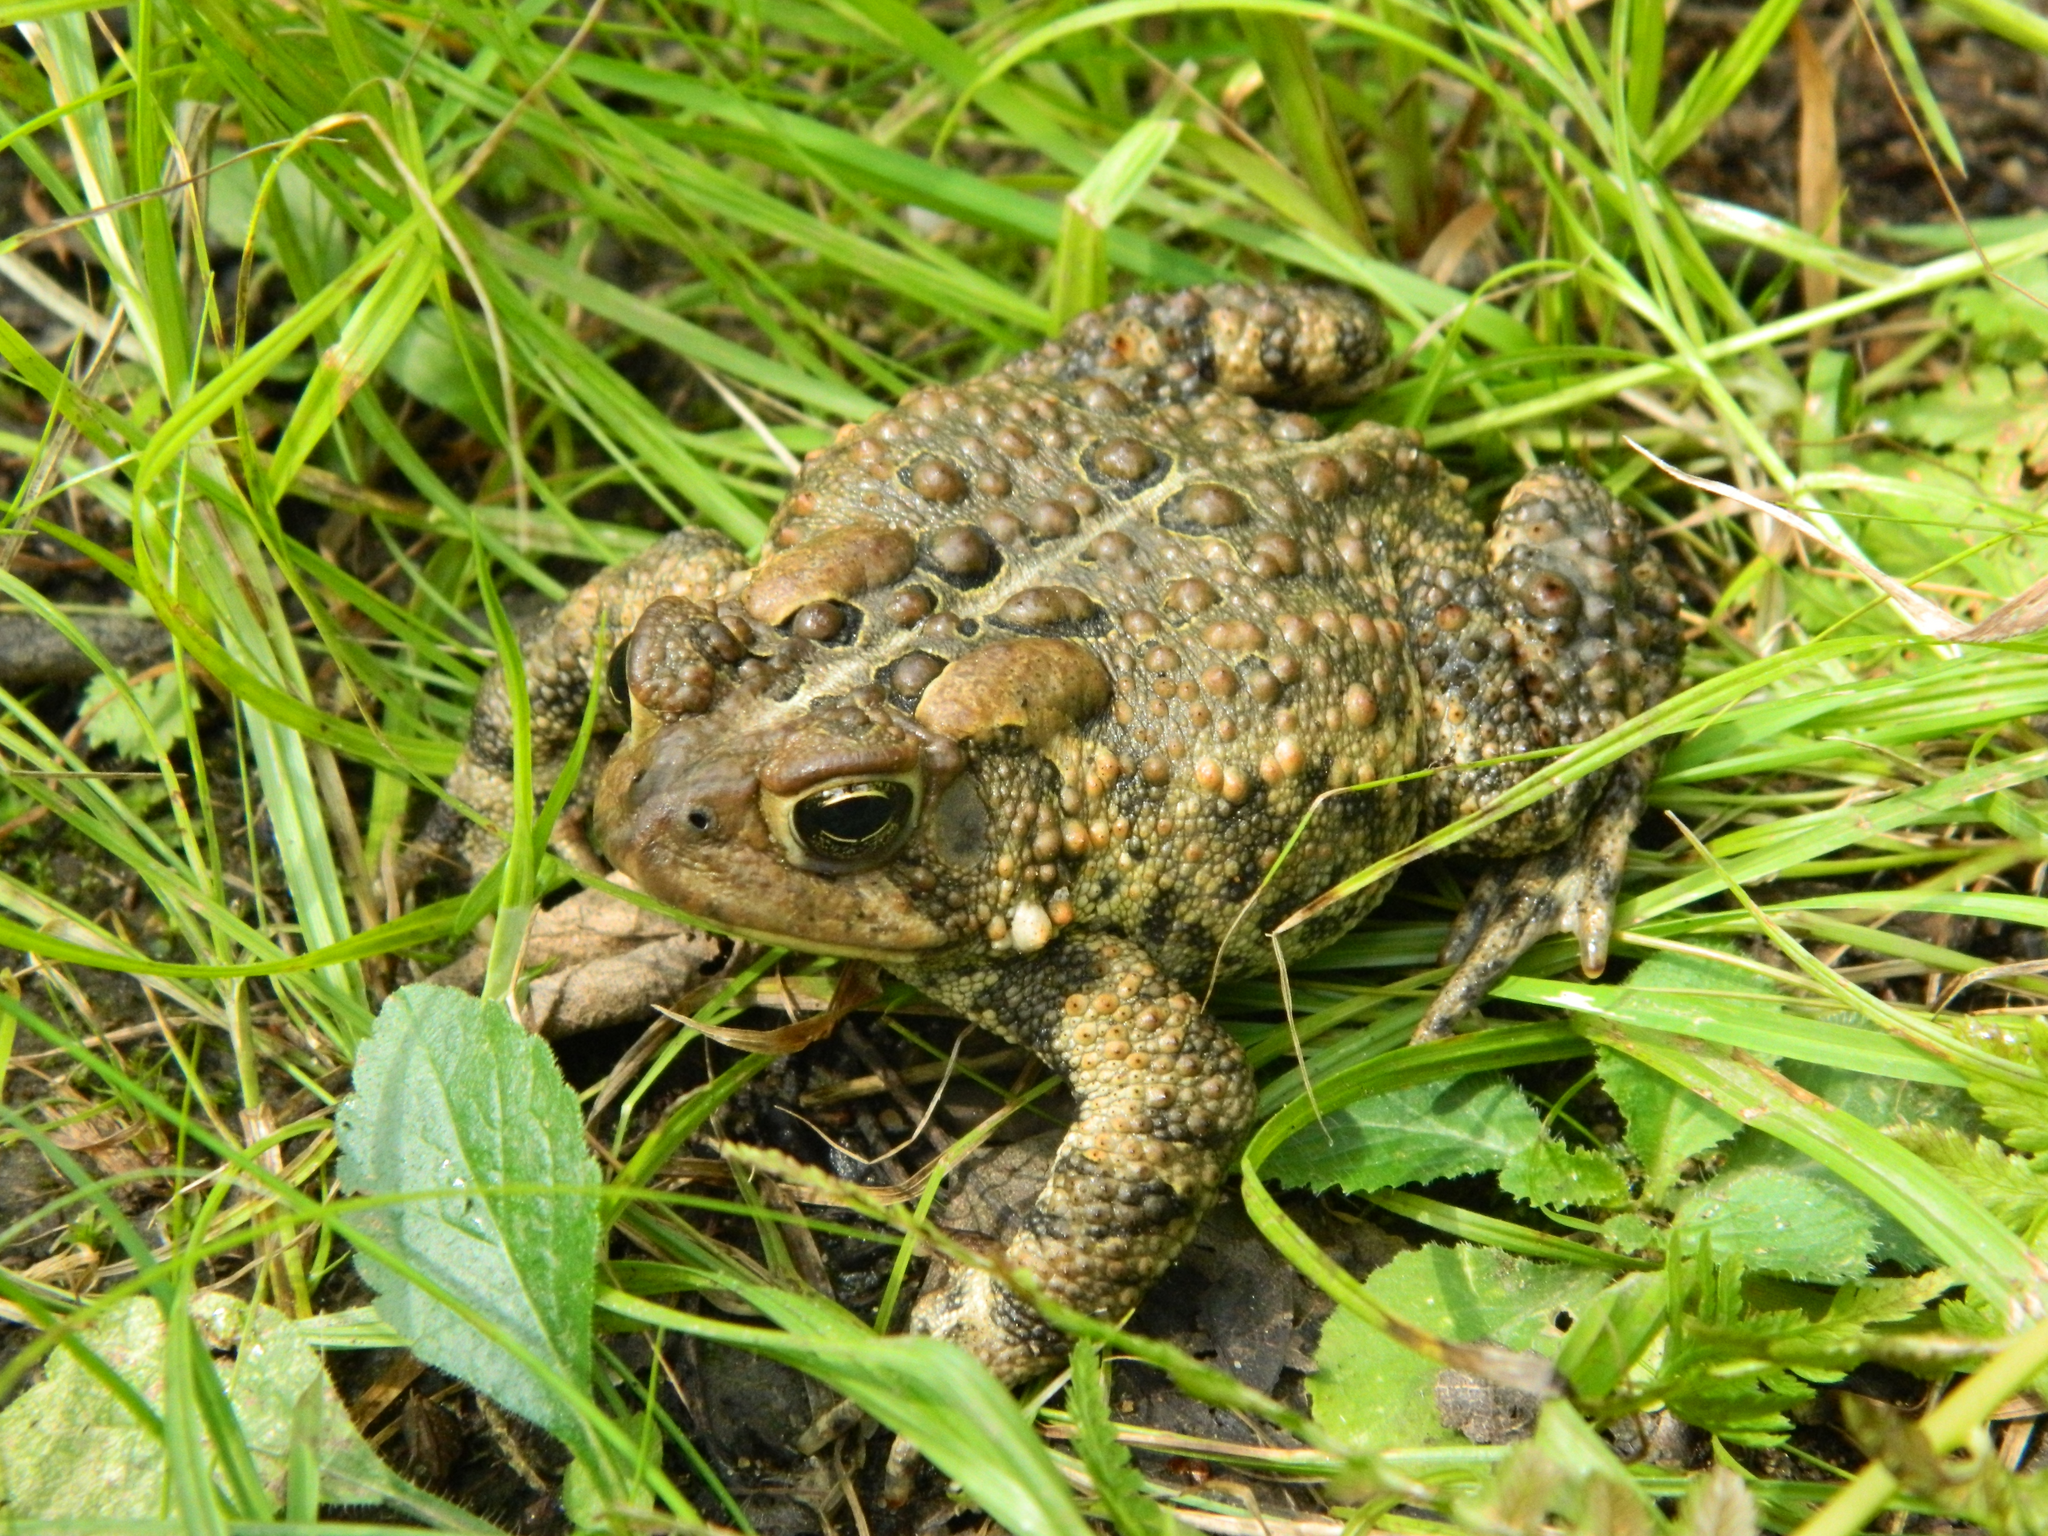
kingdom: Animalia
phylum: Chordata
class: Amphibia
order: Anura
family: Bufonidae
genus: Anaxyrus
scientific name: Anaxyrus americanus
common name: American toad
